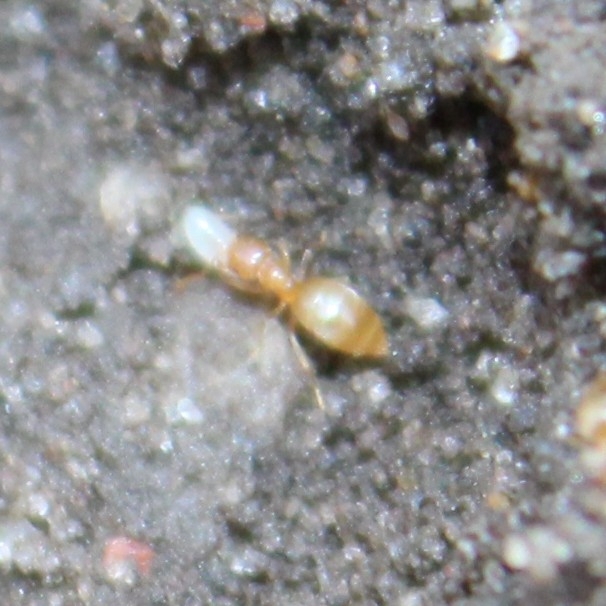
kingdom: Animalia
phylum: Arthropoda
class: Insecta
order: Hymenoptera
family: Formicidae
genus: Brachymyrmex
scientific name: Brachymyrmex depilis
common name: Hairless rover ant
